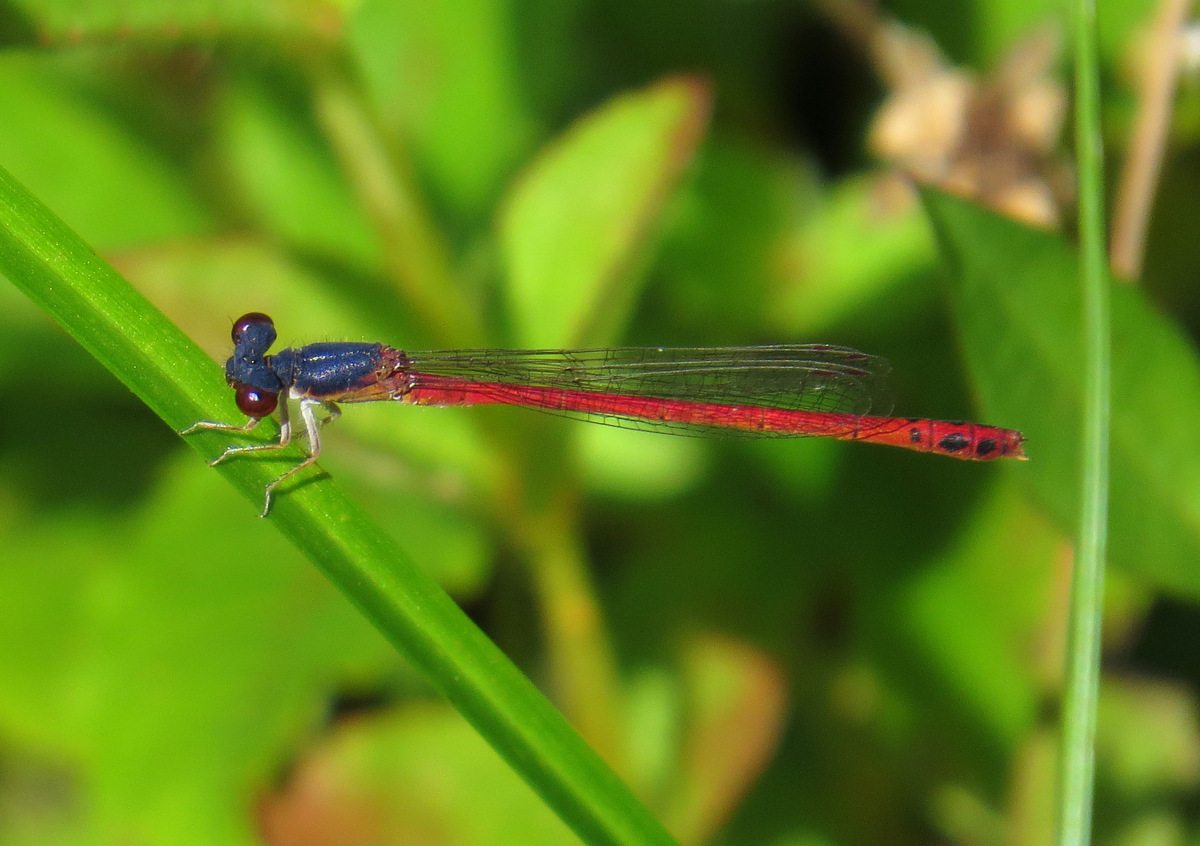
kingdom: Animalia
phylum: Arthropoda
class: Insecta
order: Odonata
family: Coenagrionidae
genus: Amphiagrion
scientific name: Amphiagrion saucium
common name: Eastern red damsel
